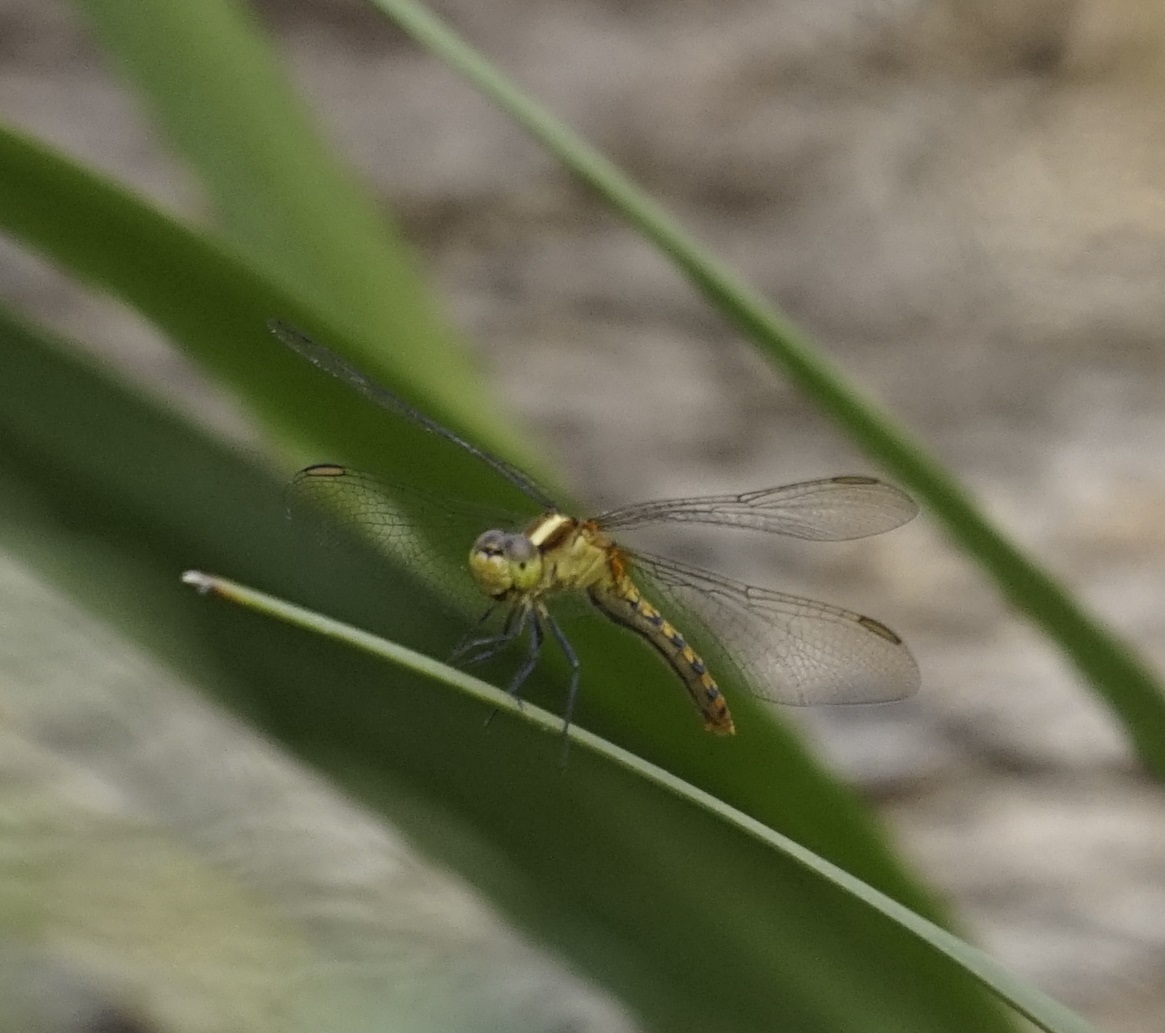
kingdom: Animalia
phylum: Arthropoda
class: Insecta
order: Odonata
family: Libellulidae
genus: Diplacodes
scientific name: Diplacodes melanopsis
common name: Black-faced percher
